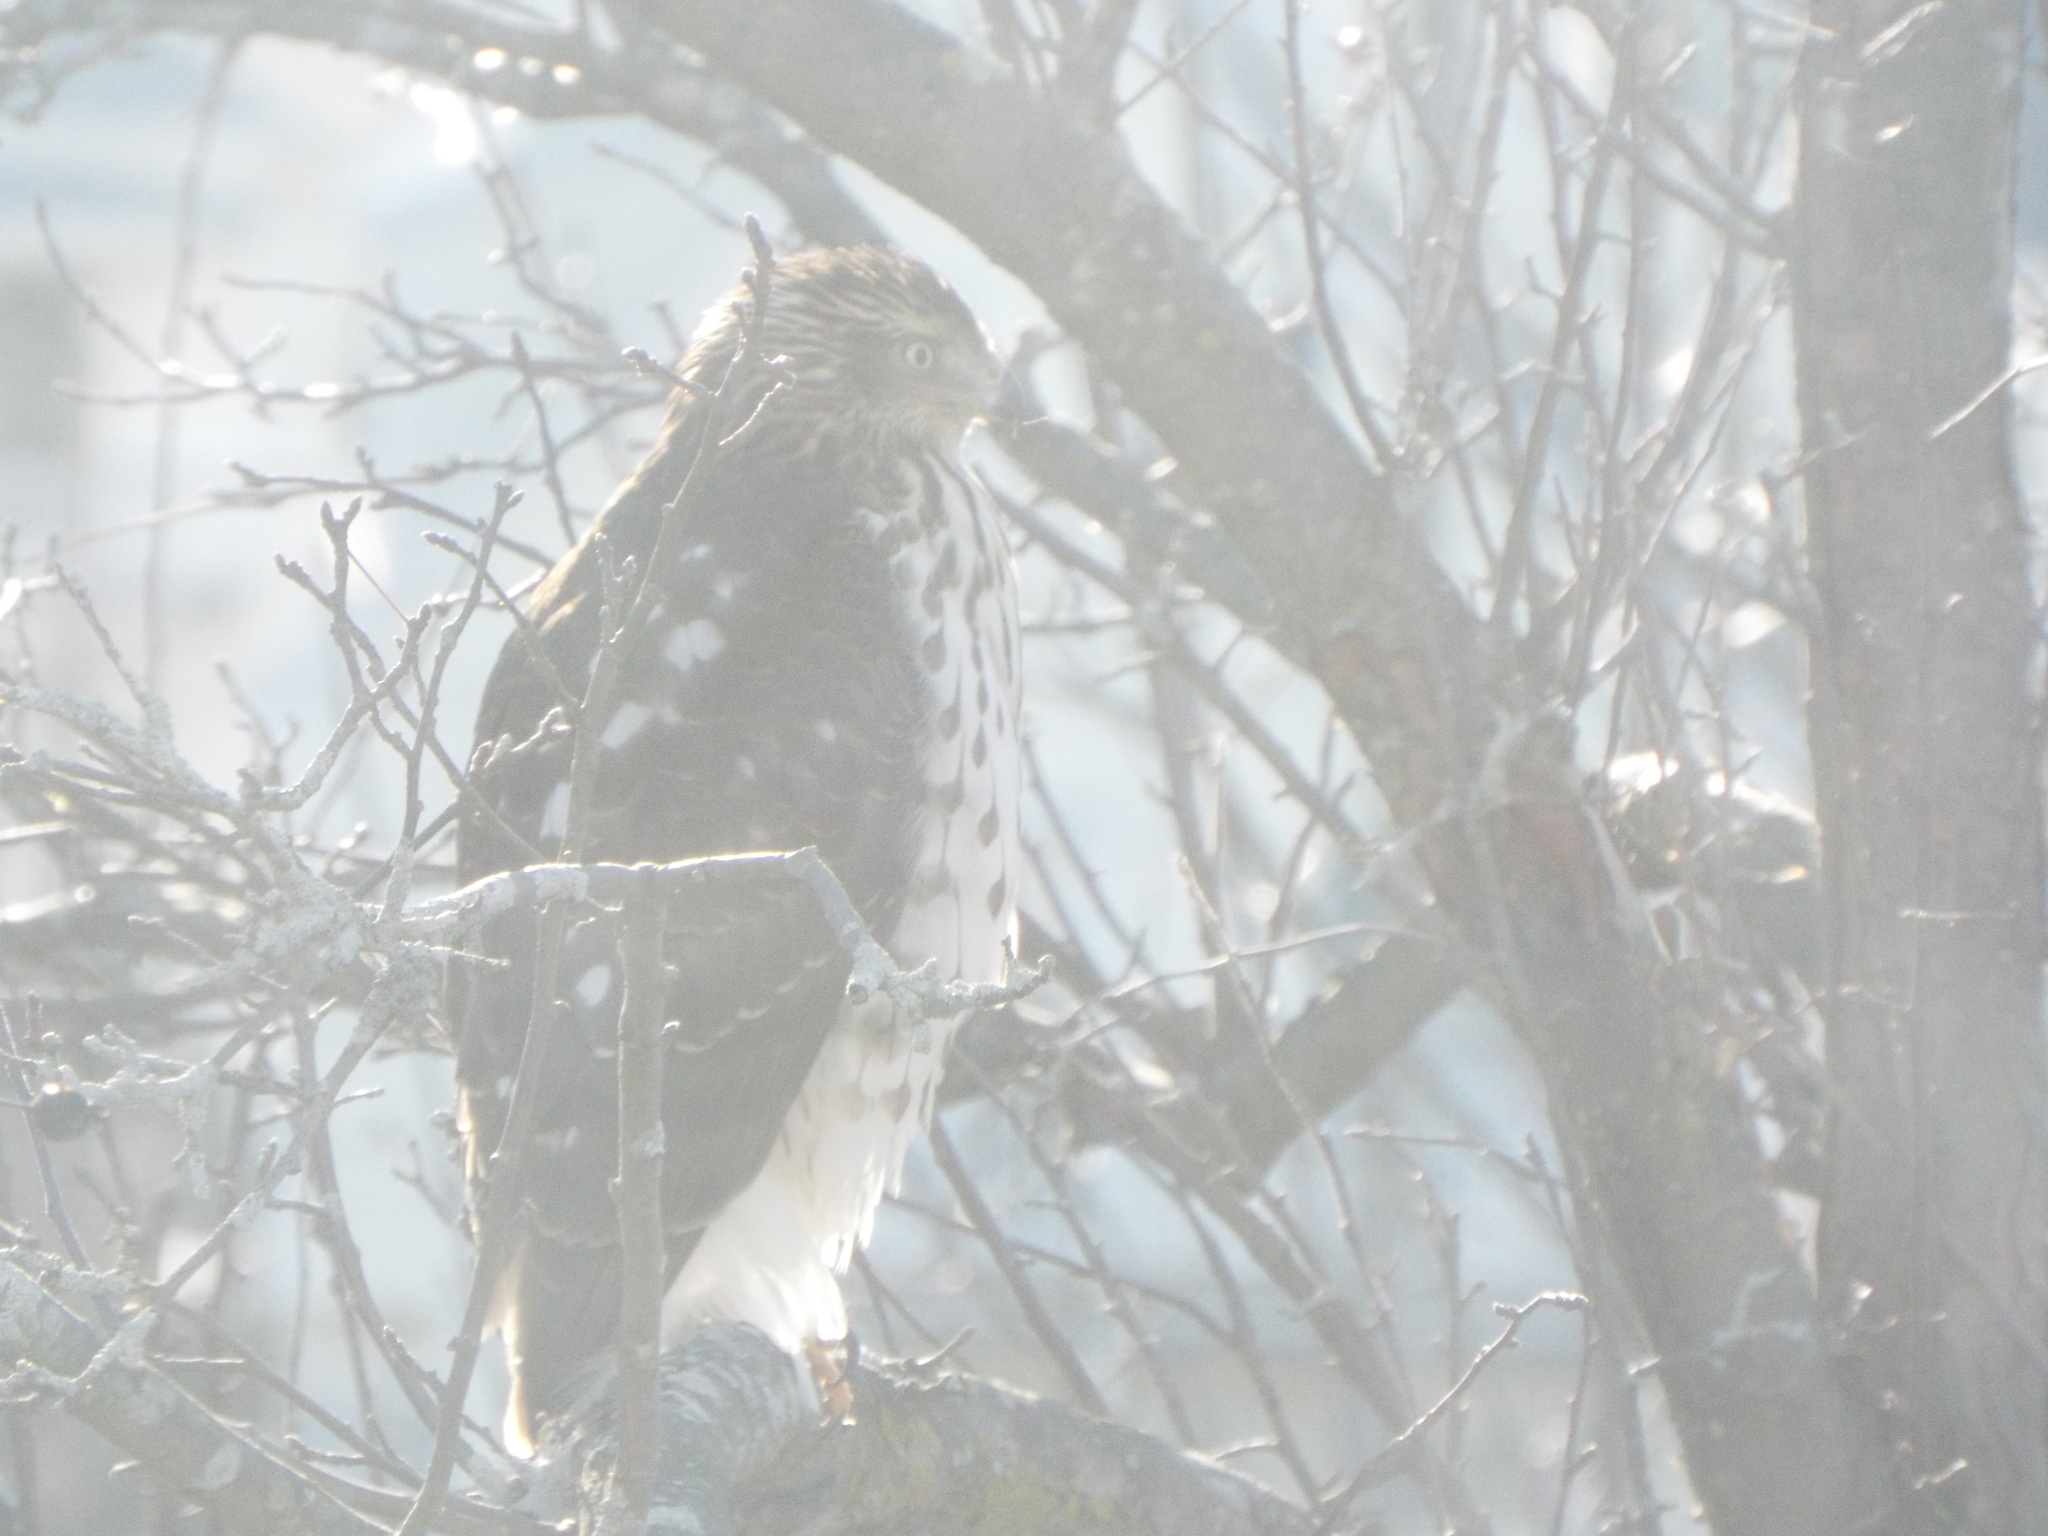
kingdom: Animalia
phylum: Chordata
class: Aves
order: Accipitriformes
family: Accipitridae
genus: Accipiter
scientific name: Accipiter cooperii
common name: Cooper's hawk
